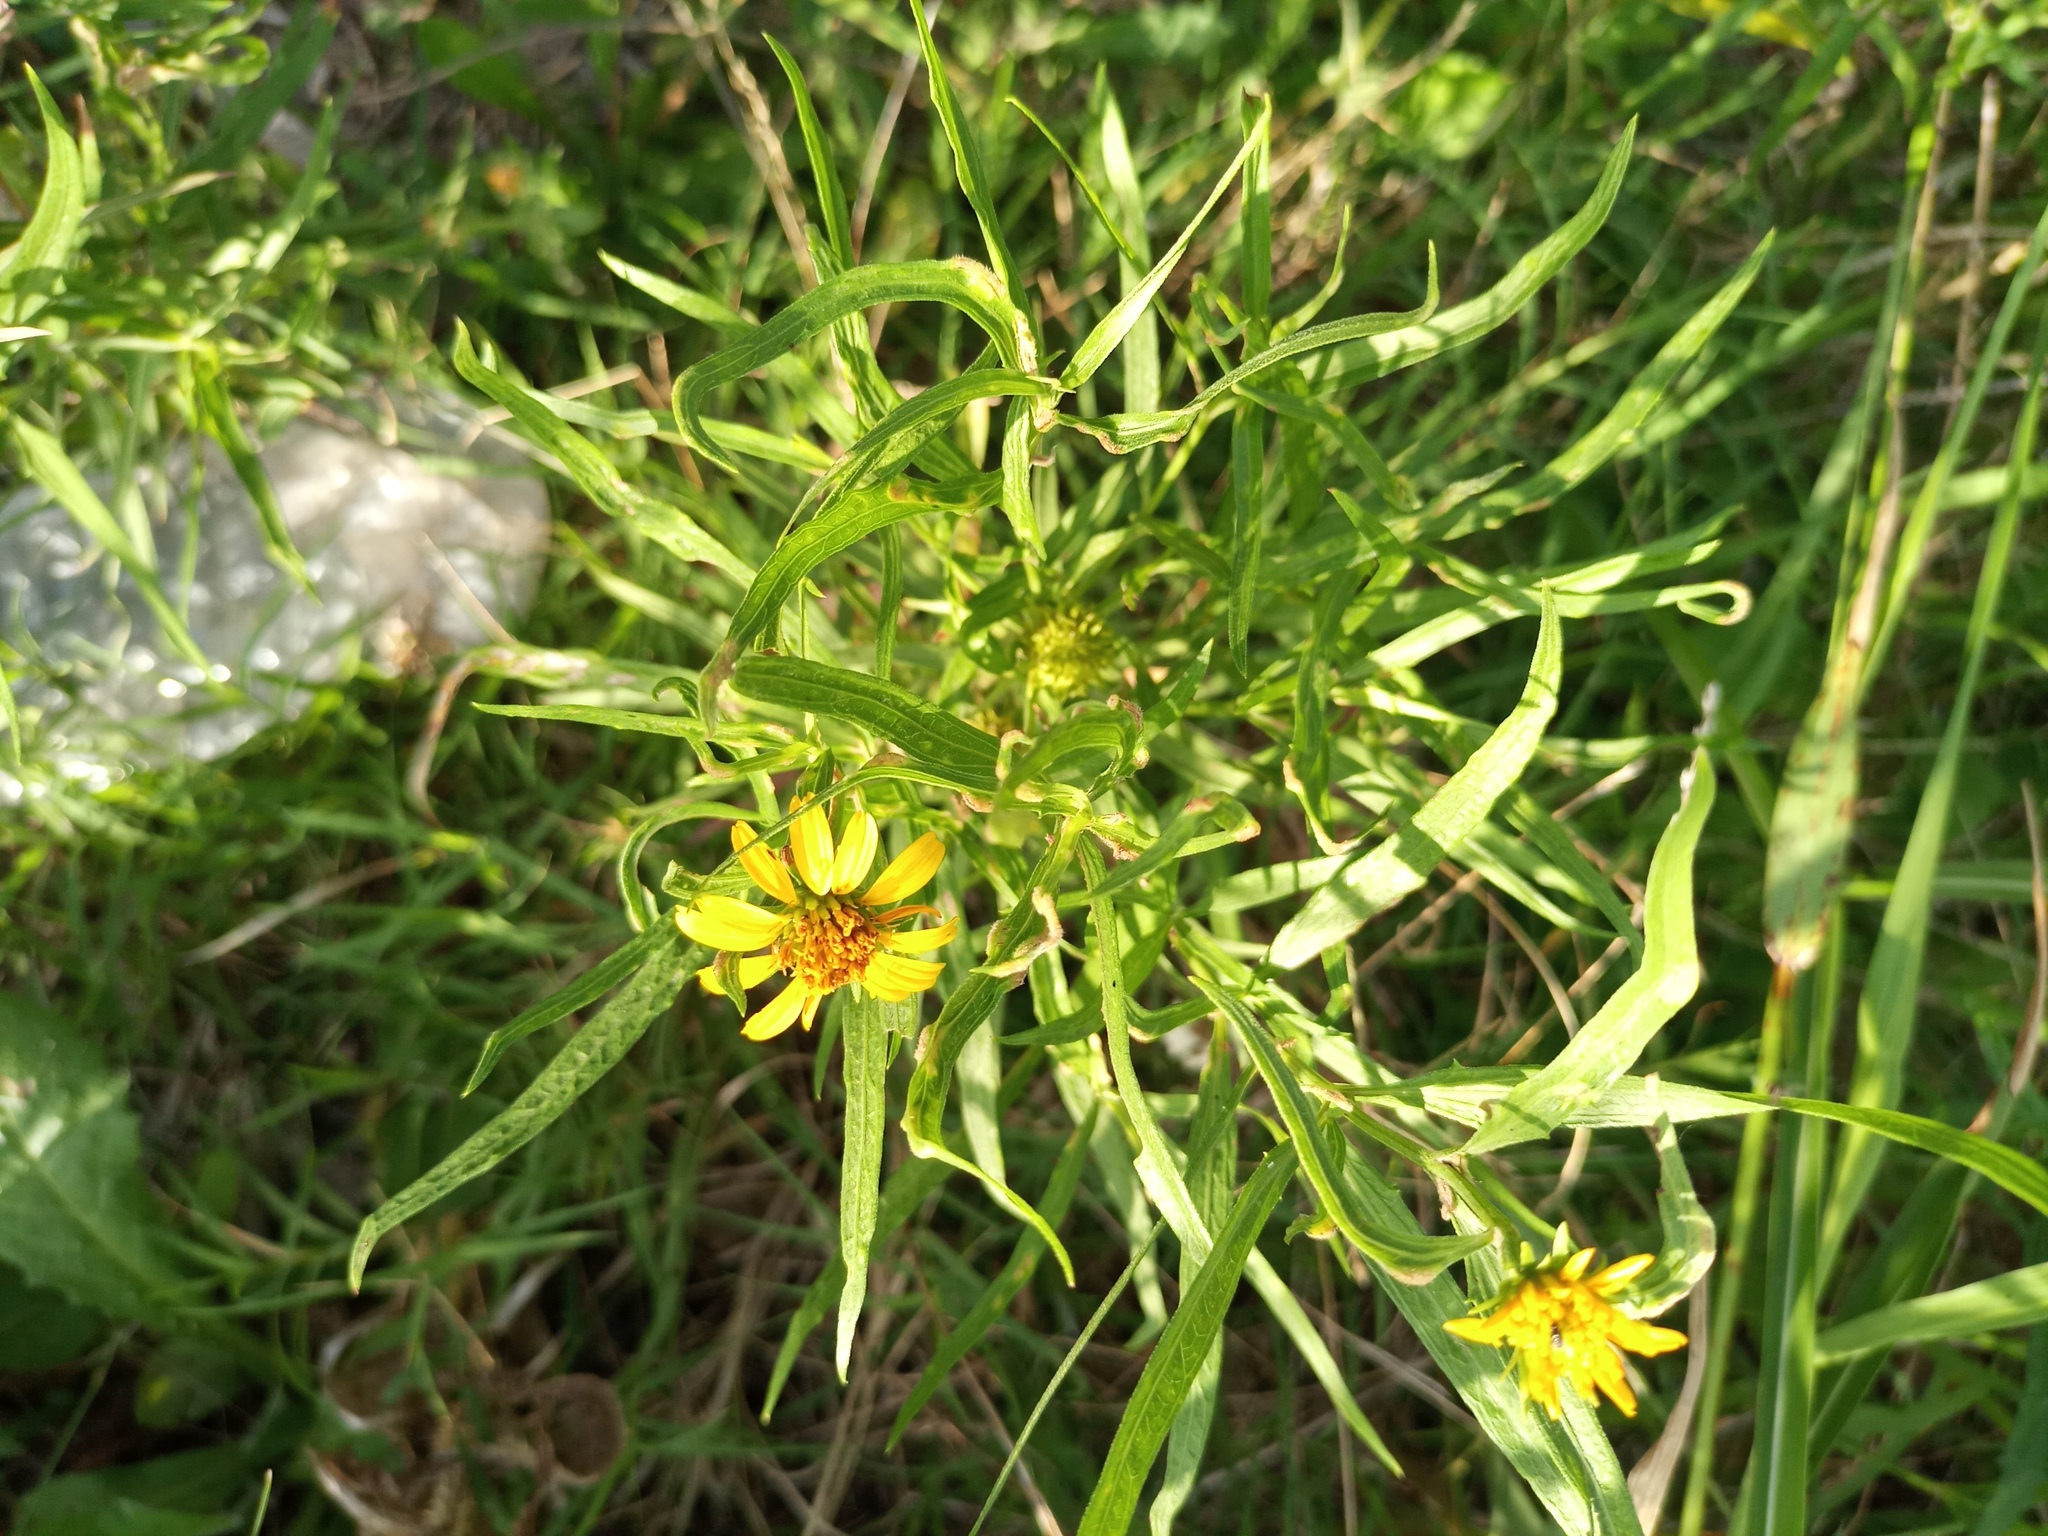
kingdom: Plantae
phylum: Tracheophyta
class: Magnoliopsida
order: Asterales
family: Asteraceae
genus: Pascalia
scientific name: Pascalia glauca
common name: Beach creeping oxeye
